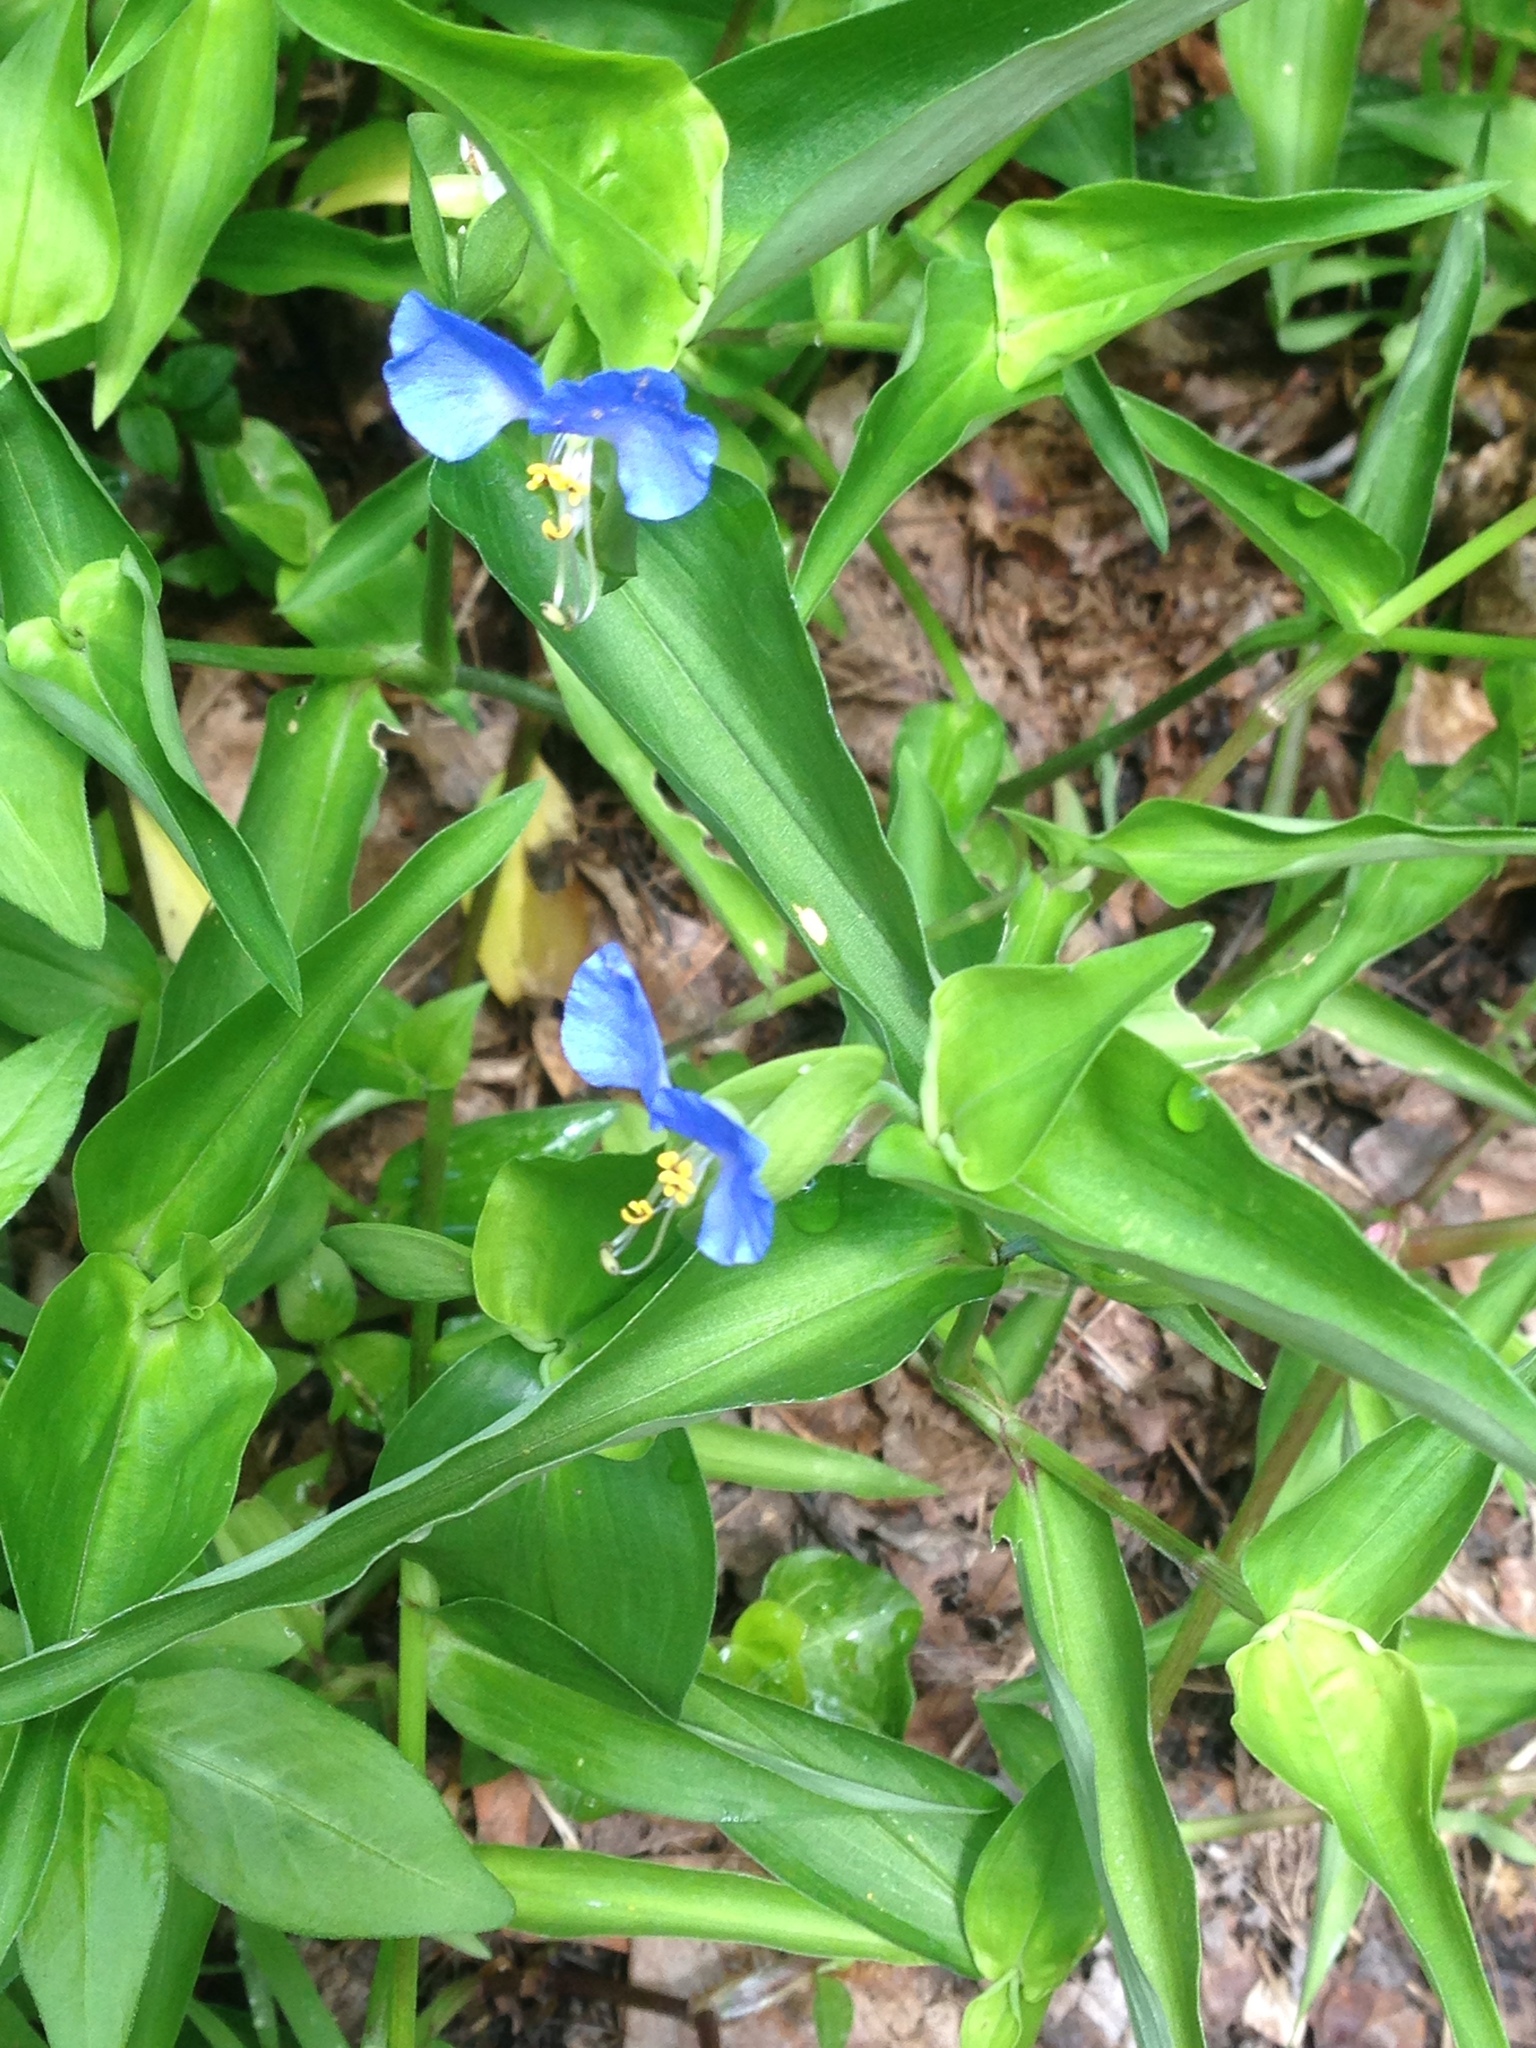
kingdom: Plantae
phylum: Tracheophyta
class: Liliopsida
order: Commelinales
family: Commelinaceae
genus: Commelina
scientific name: Commelina communis
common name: Asiatic dayflower
